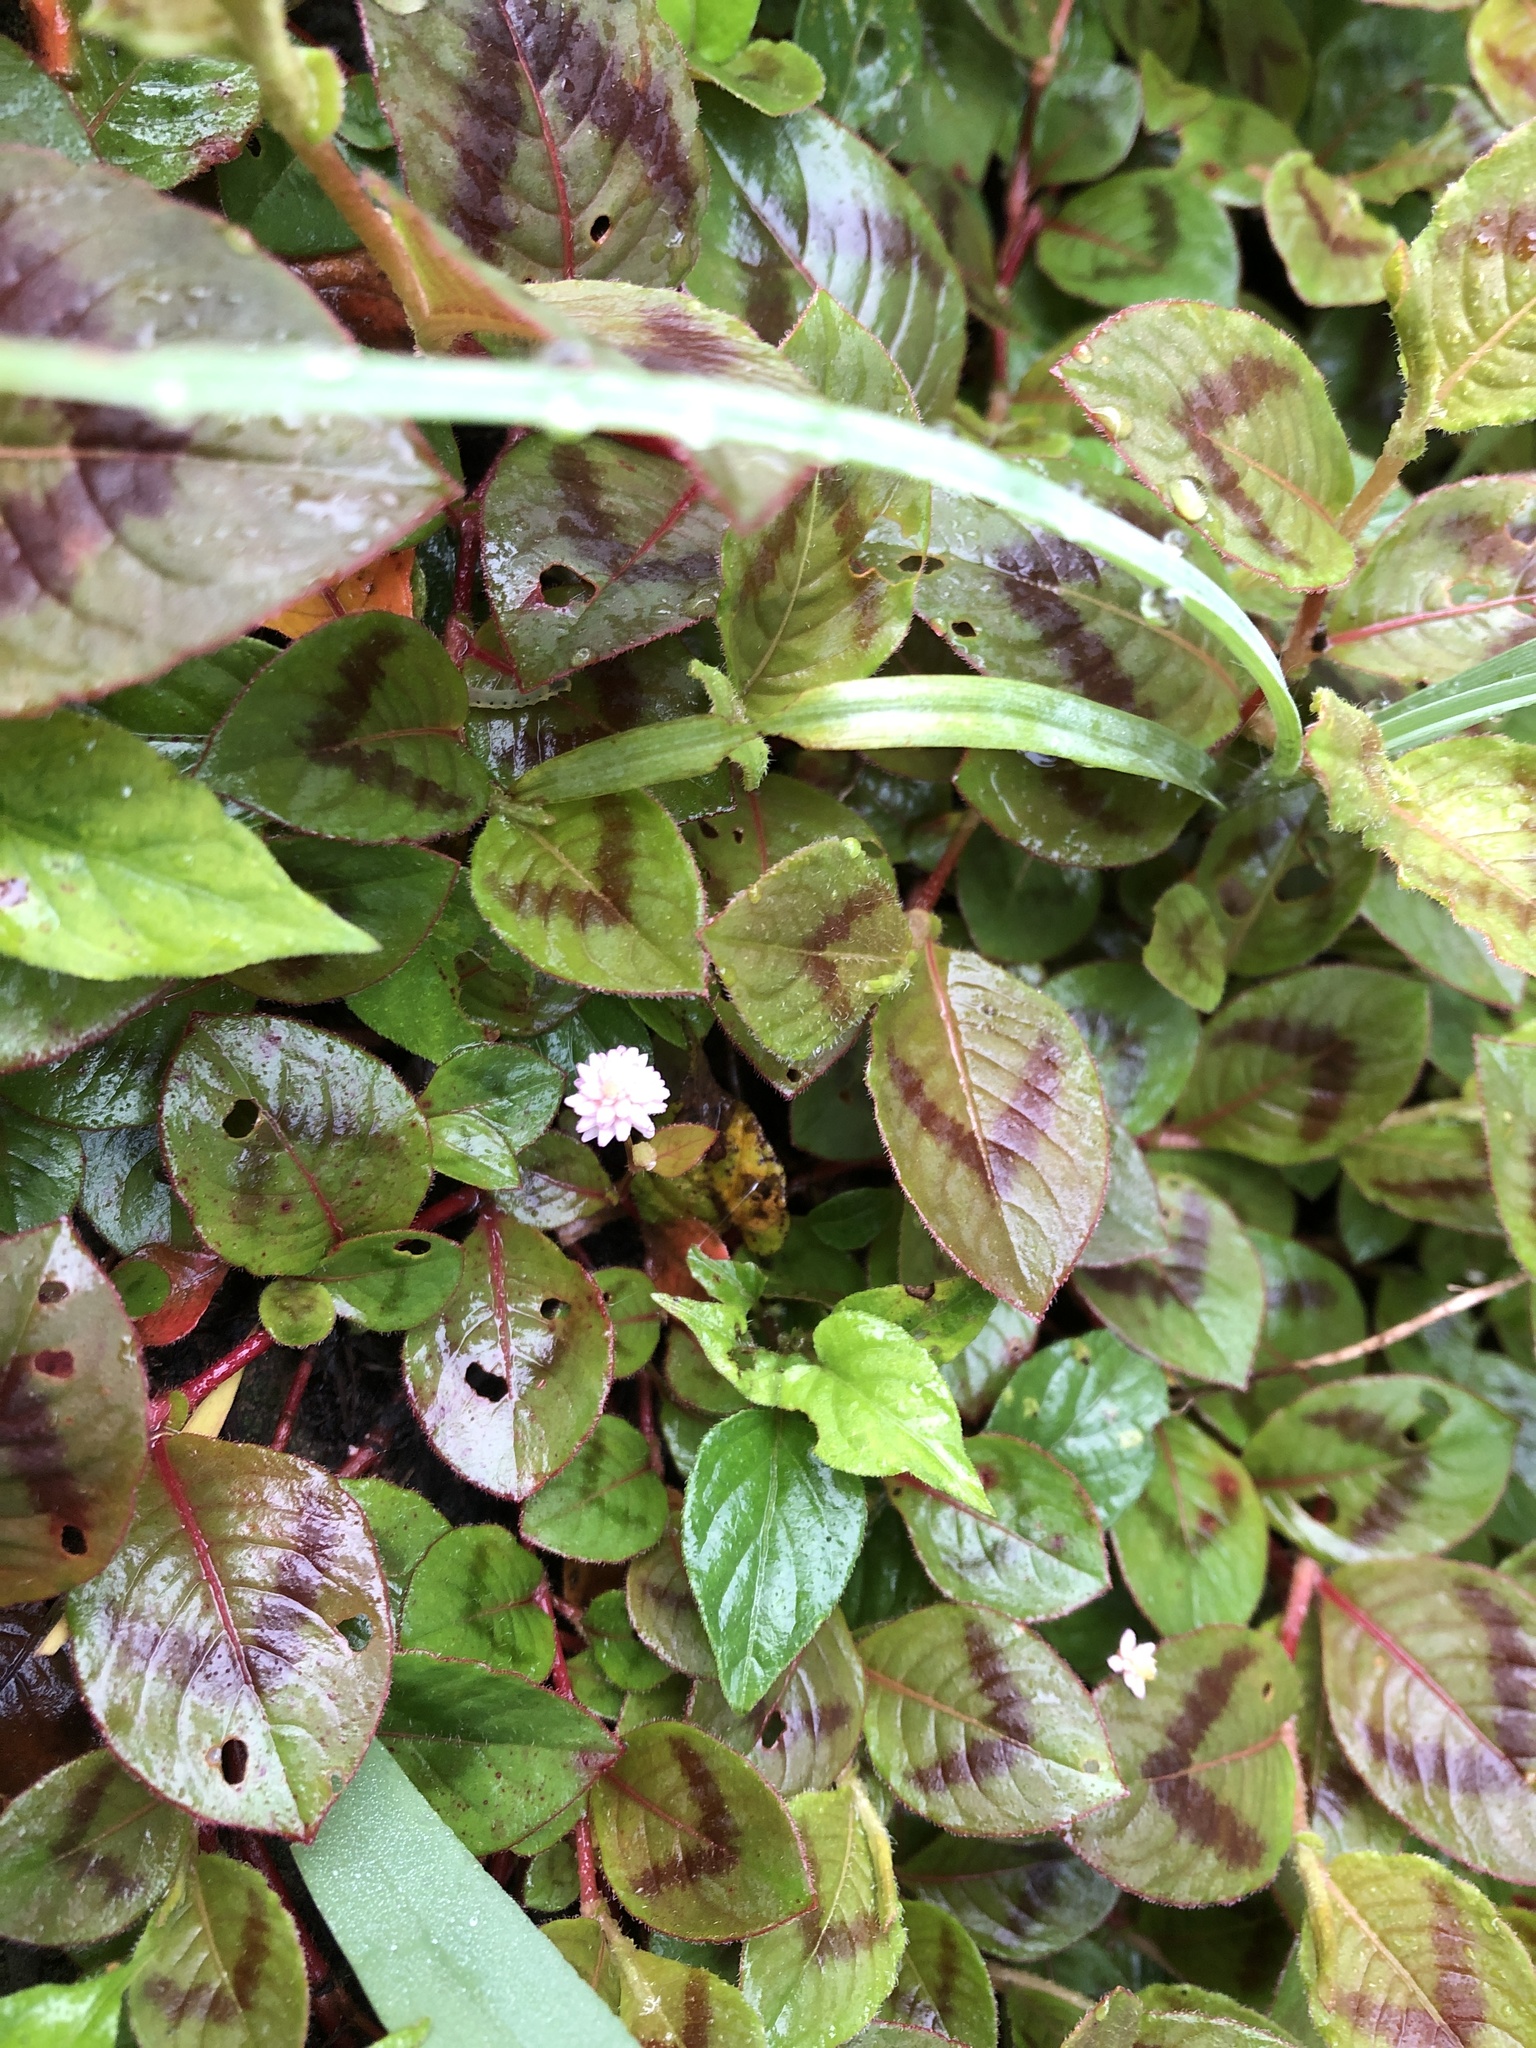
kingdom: Plantae
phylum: Tracheophyta
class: Magnoliopsida
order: Caryophyllales
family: Polygonaceae
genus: Persicaria
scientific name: Persicaria capitata
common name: Pinkhead smartweed
